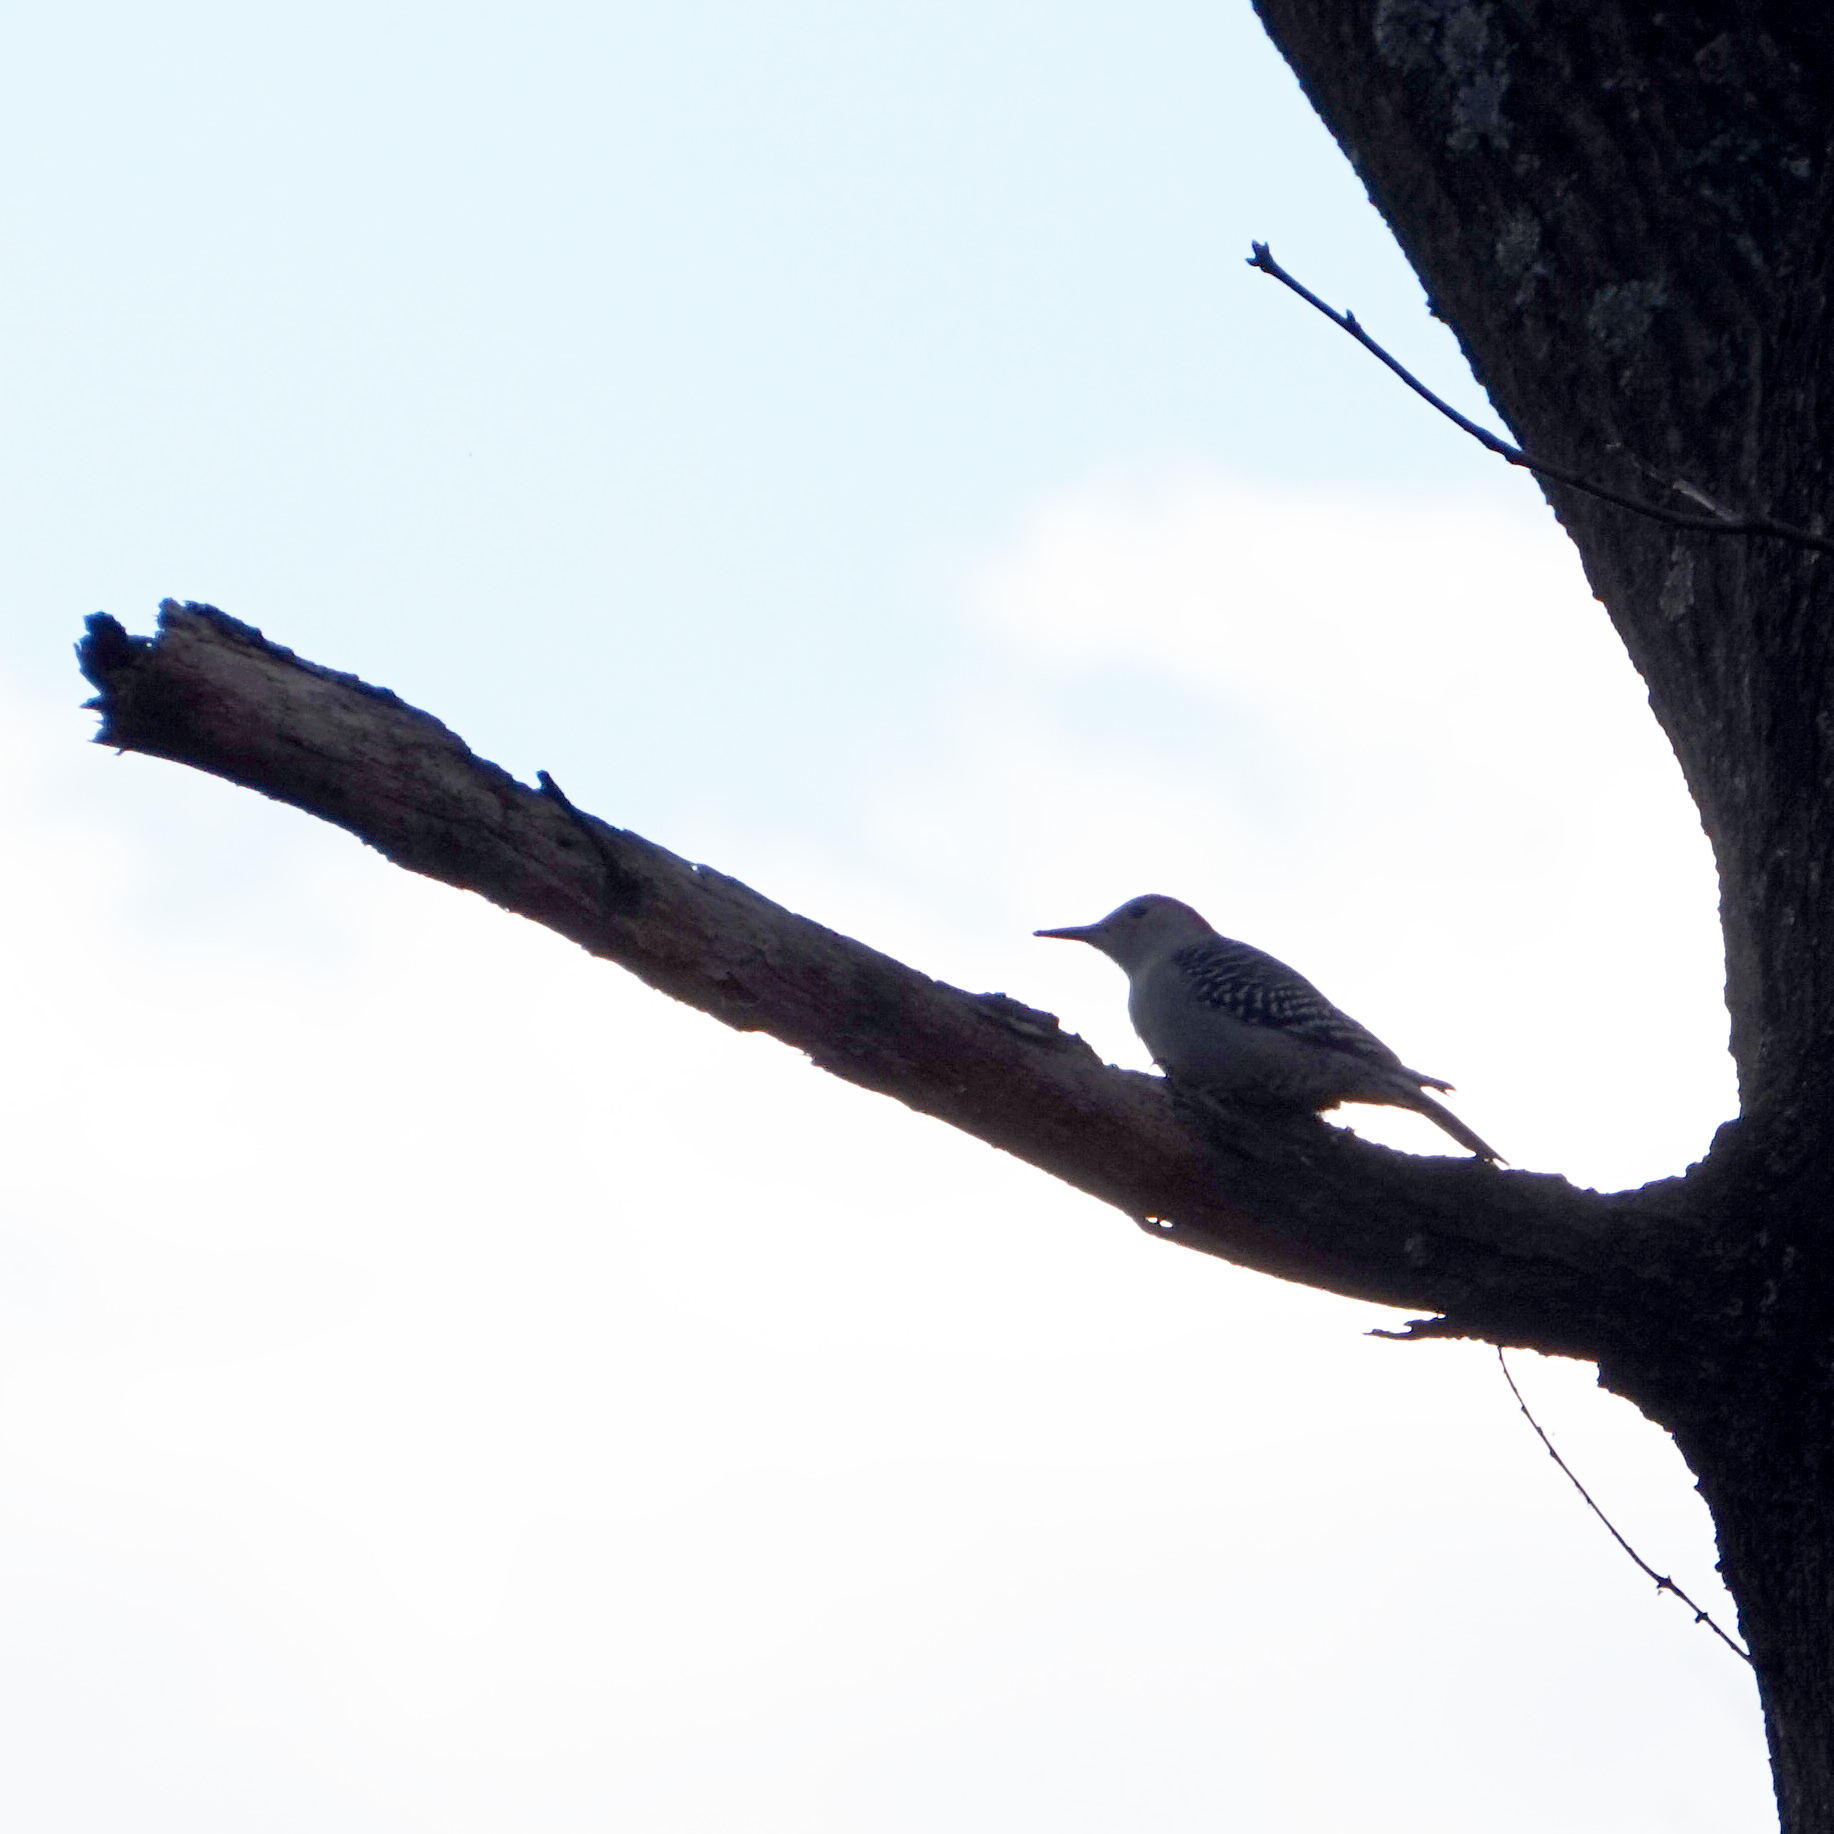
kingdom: Animalia
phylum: Chordata
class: Aves
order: Piciformes
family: Picidae
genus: Melanerpes
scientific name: Melanerpes carolinus
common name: Red-bellied woodpecker
